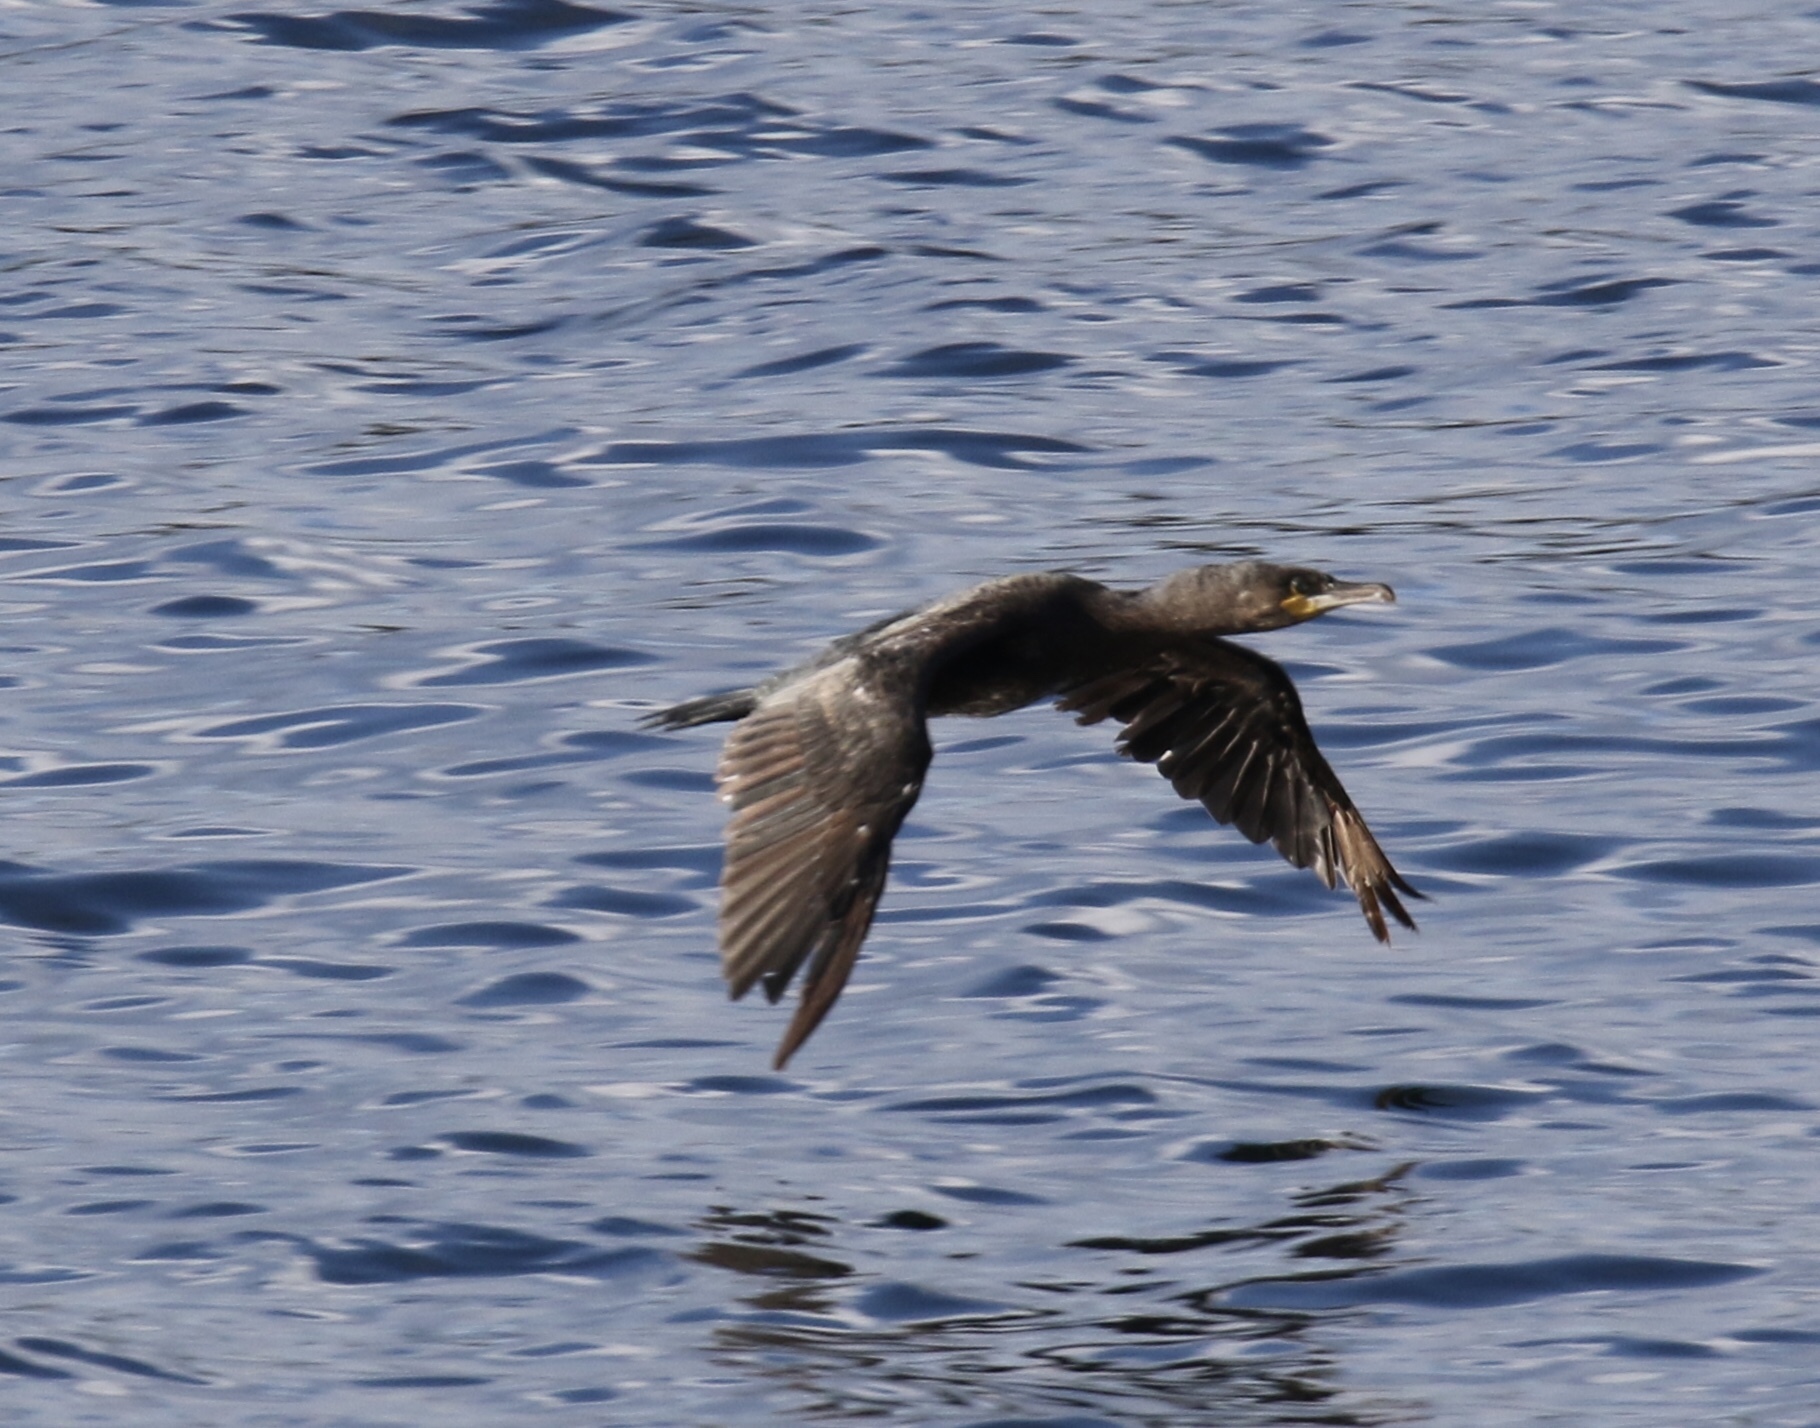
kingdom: Animalia
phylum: Chordata
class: Aves
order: Suliformes
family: Phalacrocoracidae
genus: Phalacrocorax
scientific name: Phalacrocorax carbo
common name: Great cormorant
